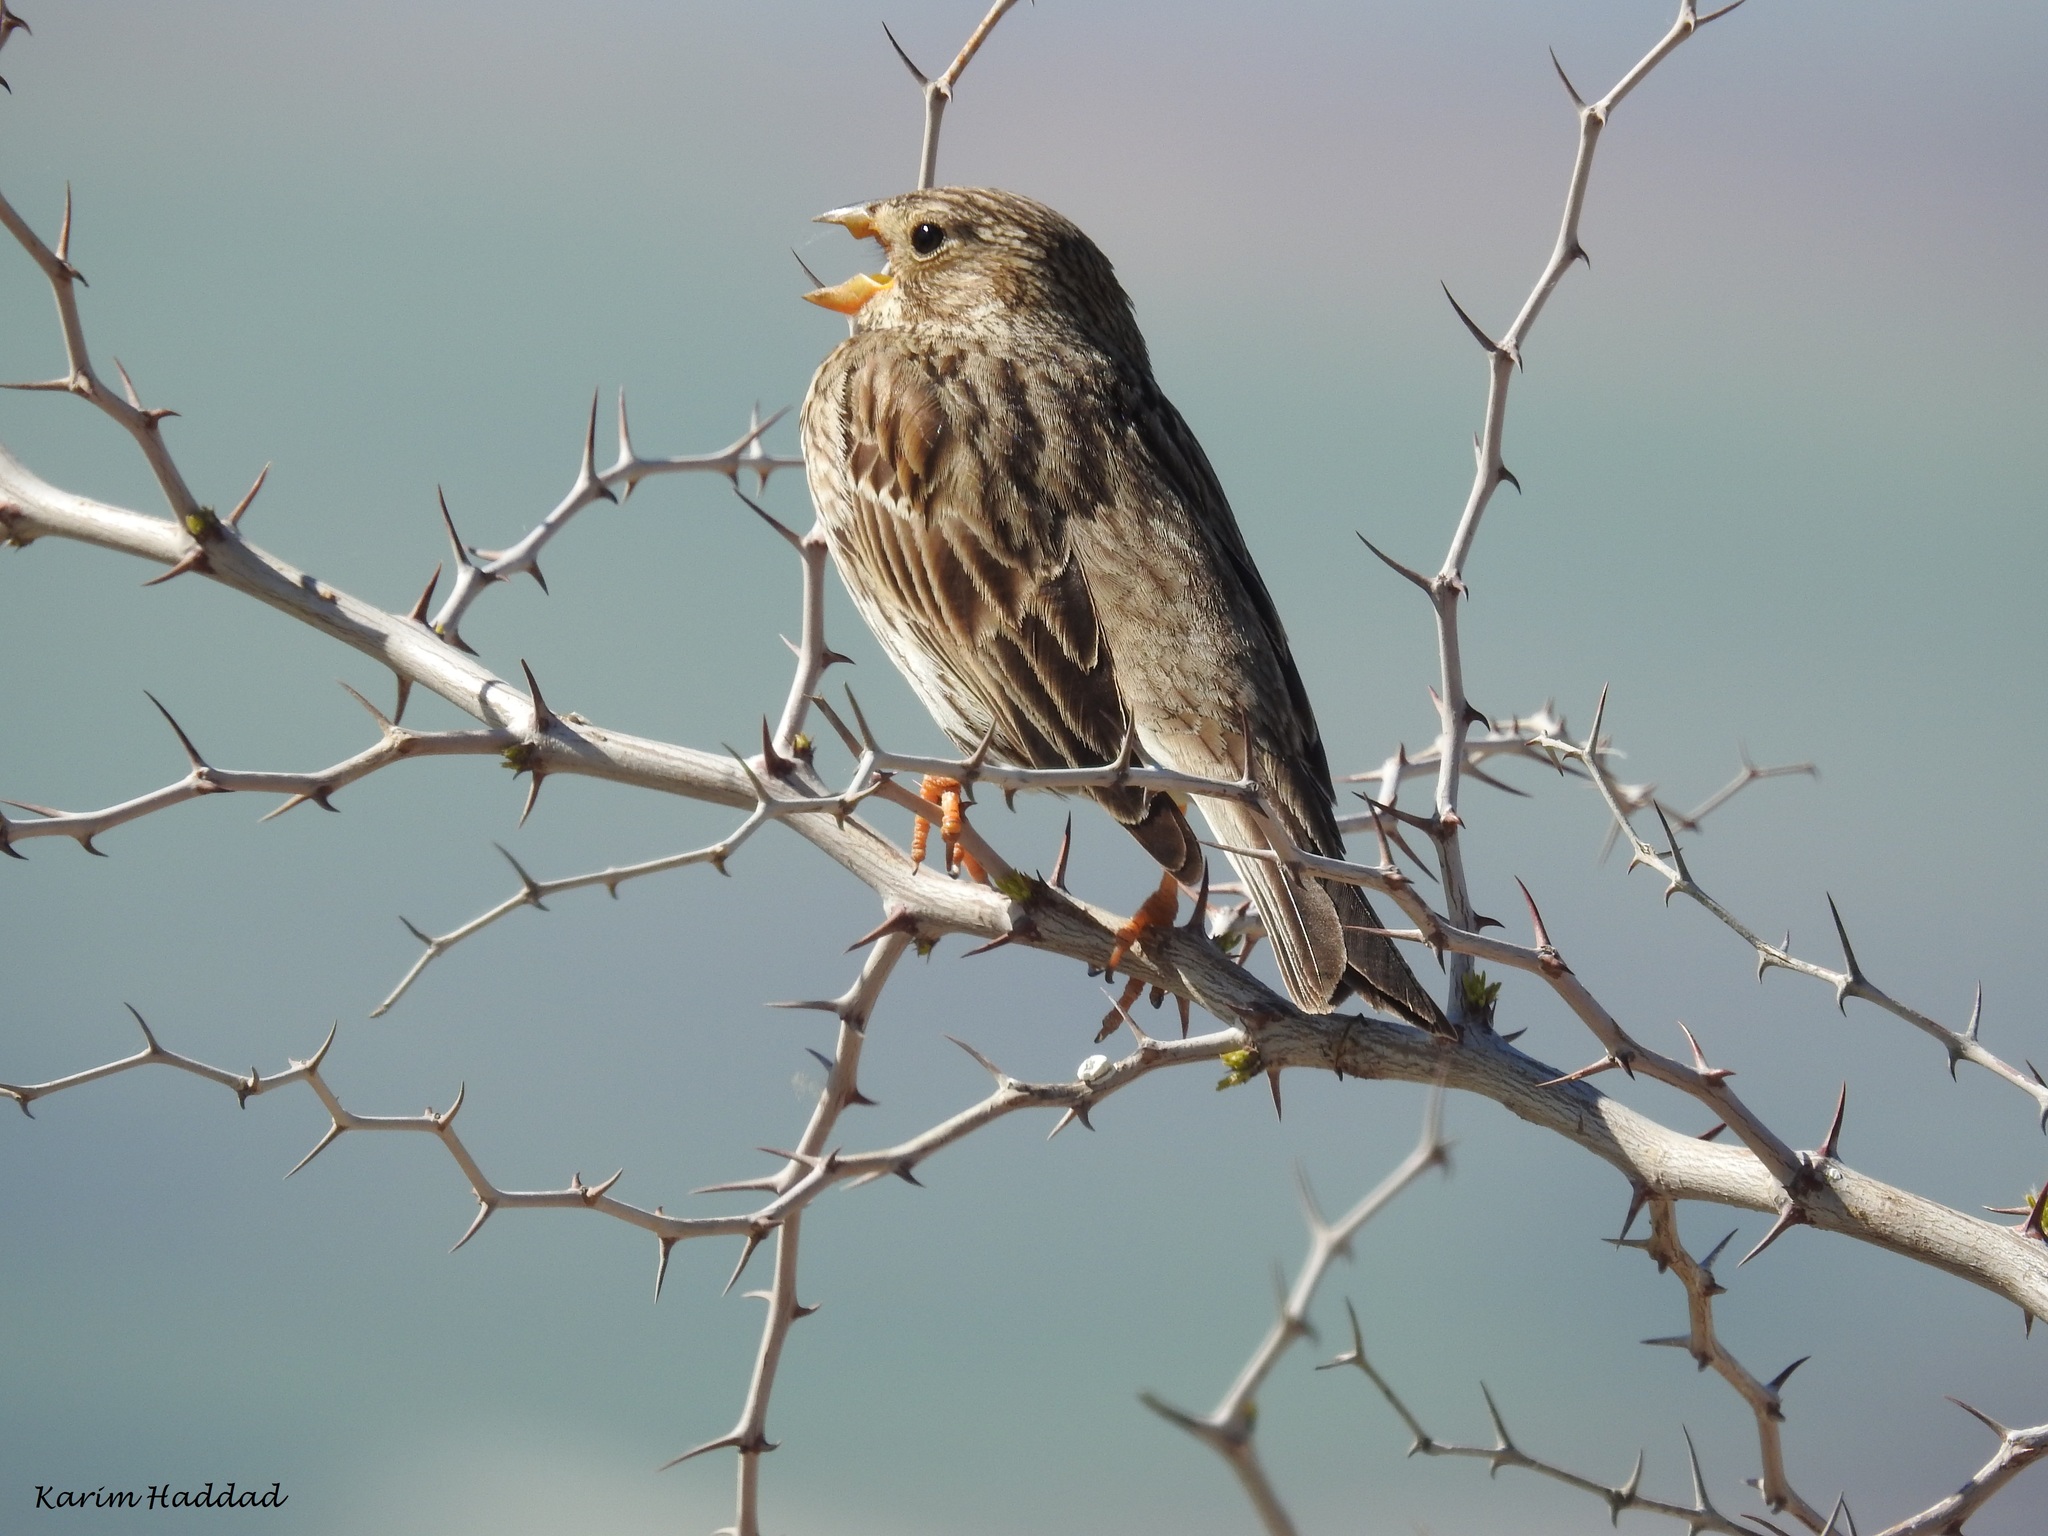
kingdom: Animalia
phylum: Chordata
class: Aves
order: Passeriformes
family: Emberizidae
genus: Emberiza
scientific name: Emberiza calandra
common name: Corn bunting
